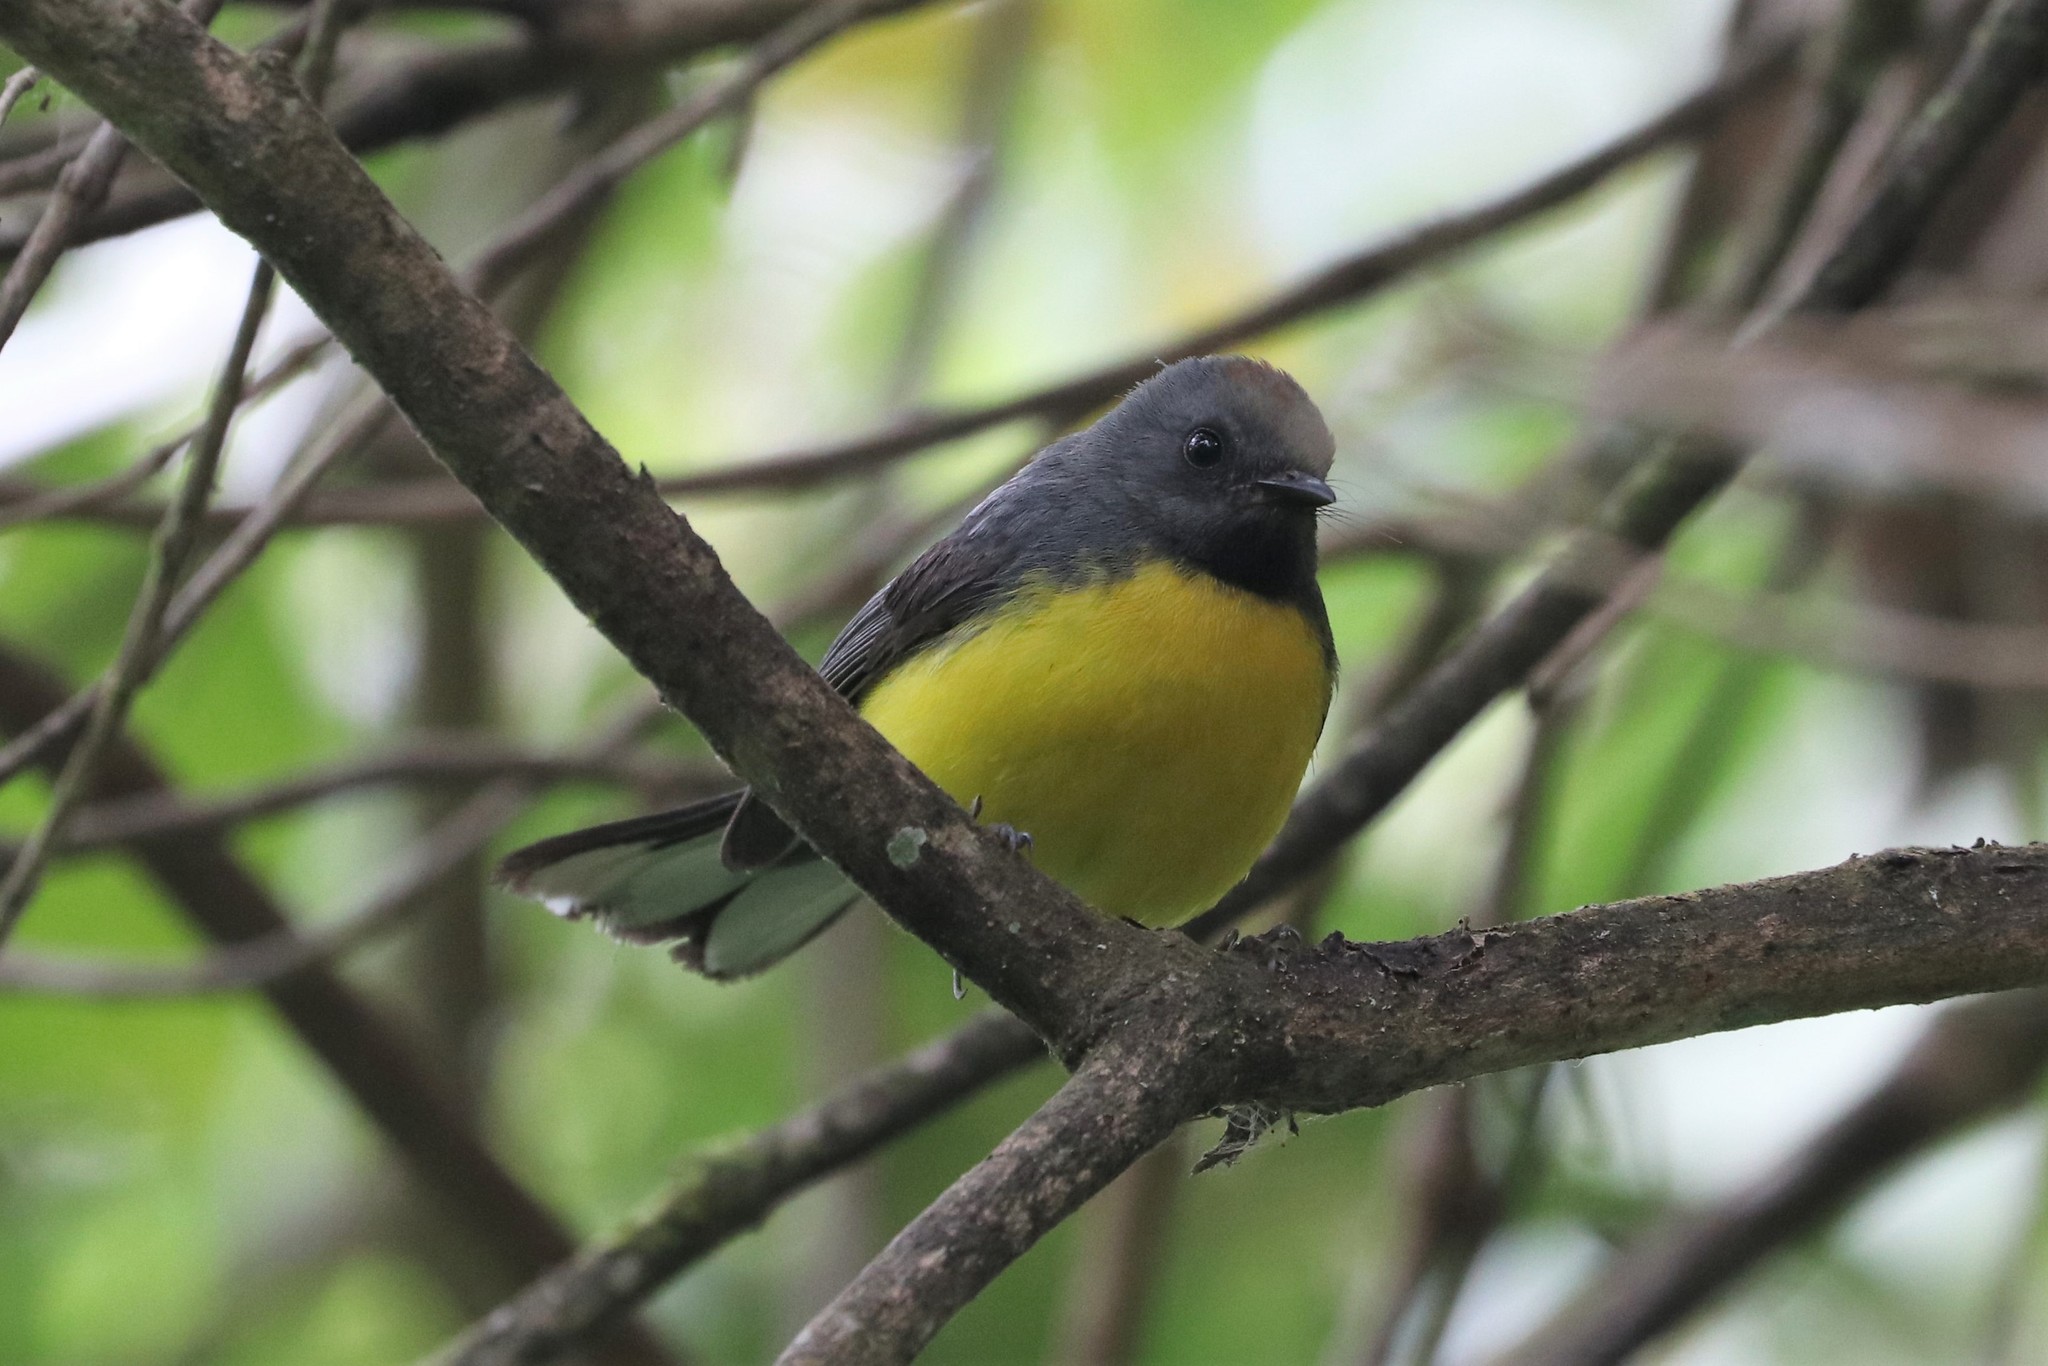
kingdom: Animalia
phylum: Chordata
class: Aves
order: Passeriformes
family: Parulidae
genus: Myioborus
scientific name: Myioborus miniatus
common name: Slate-throated redstart
